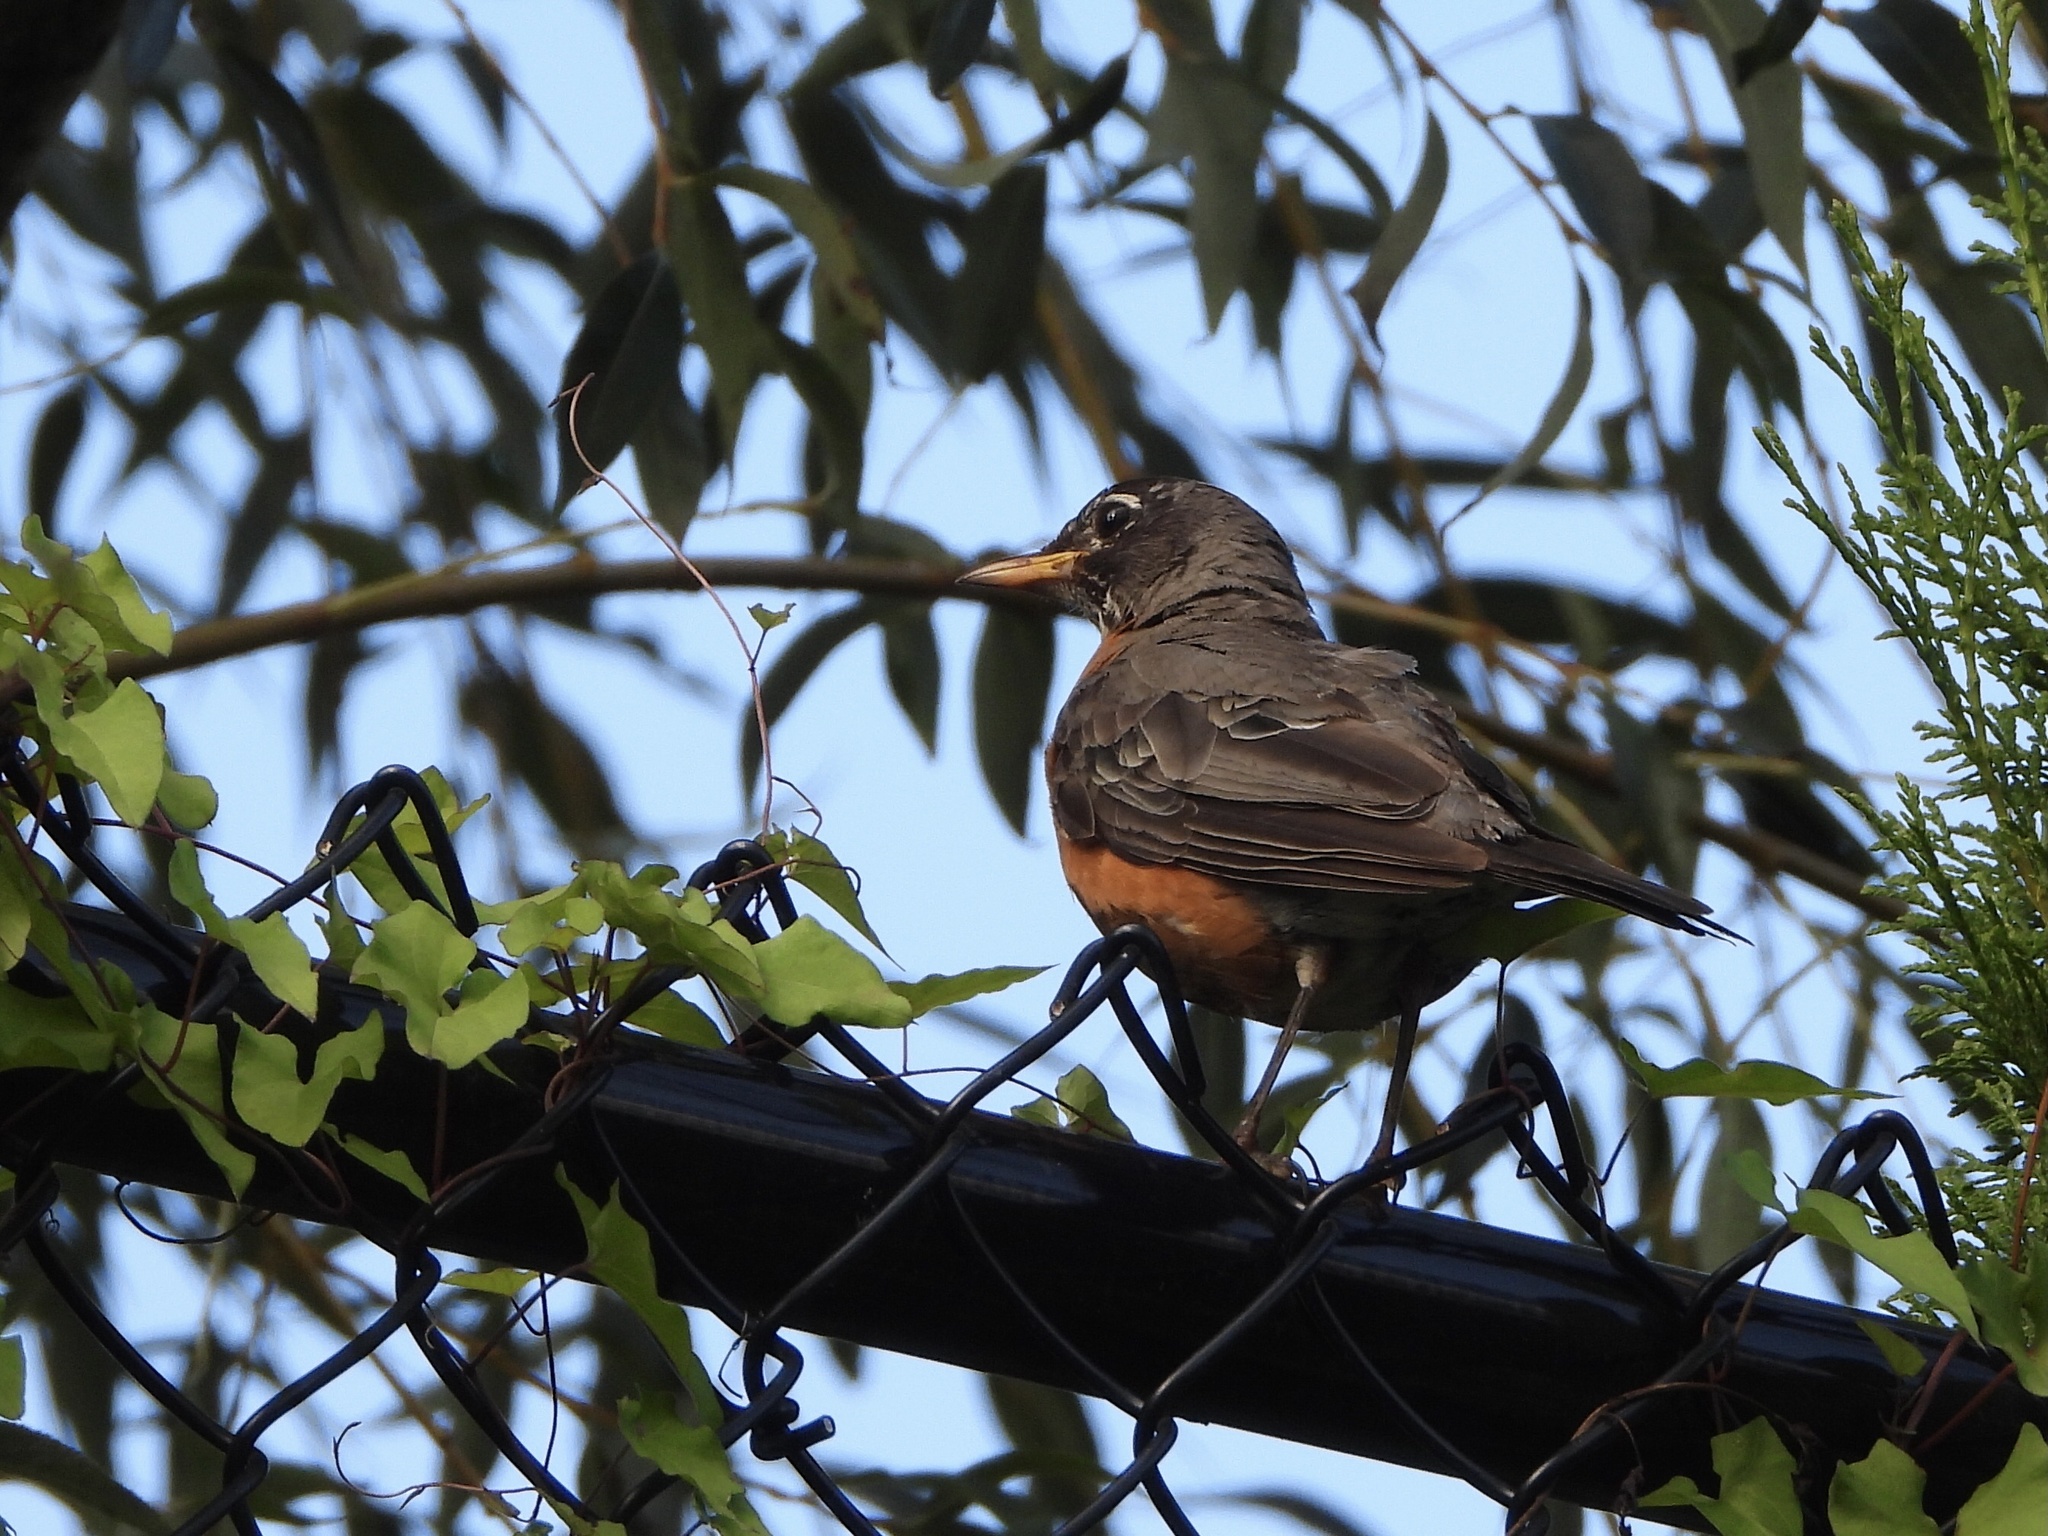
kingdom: Animalia
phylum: Chordata
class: Aves
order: Passeriformes
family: Turdidae
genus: Turdus
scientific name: Turdus migratorius
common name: American robin
